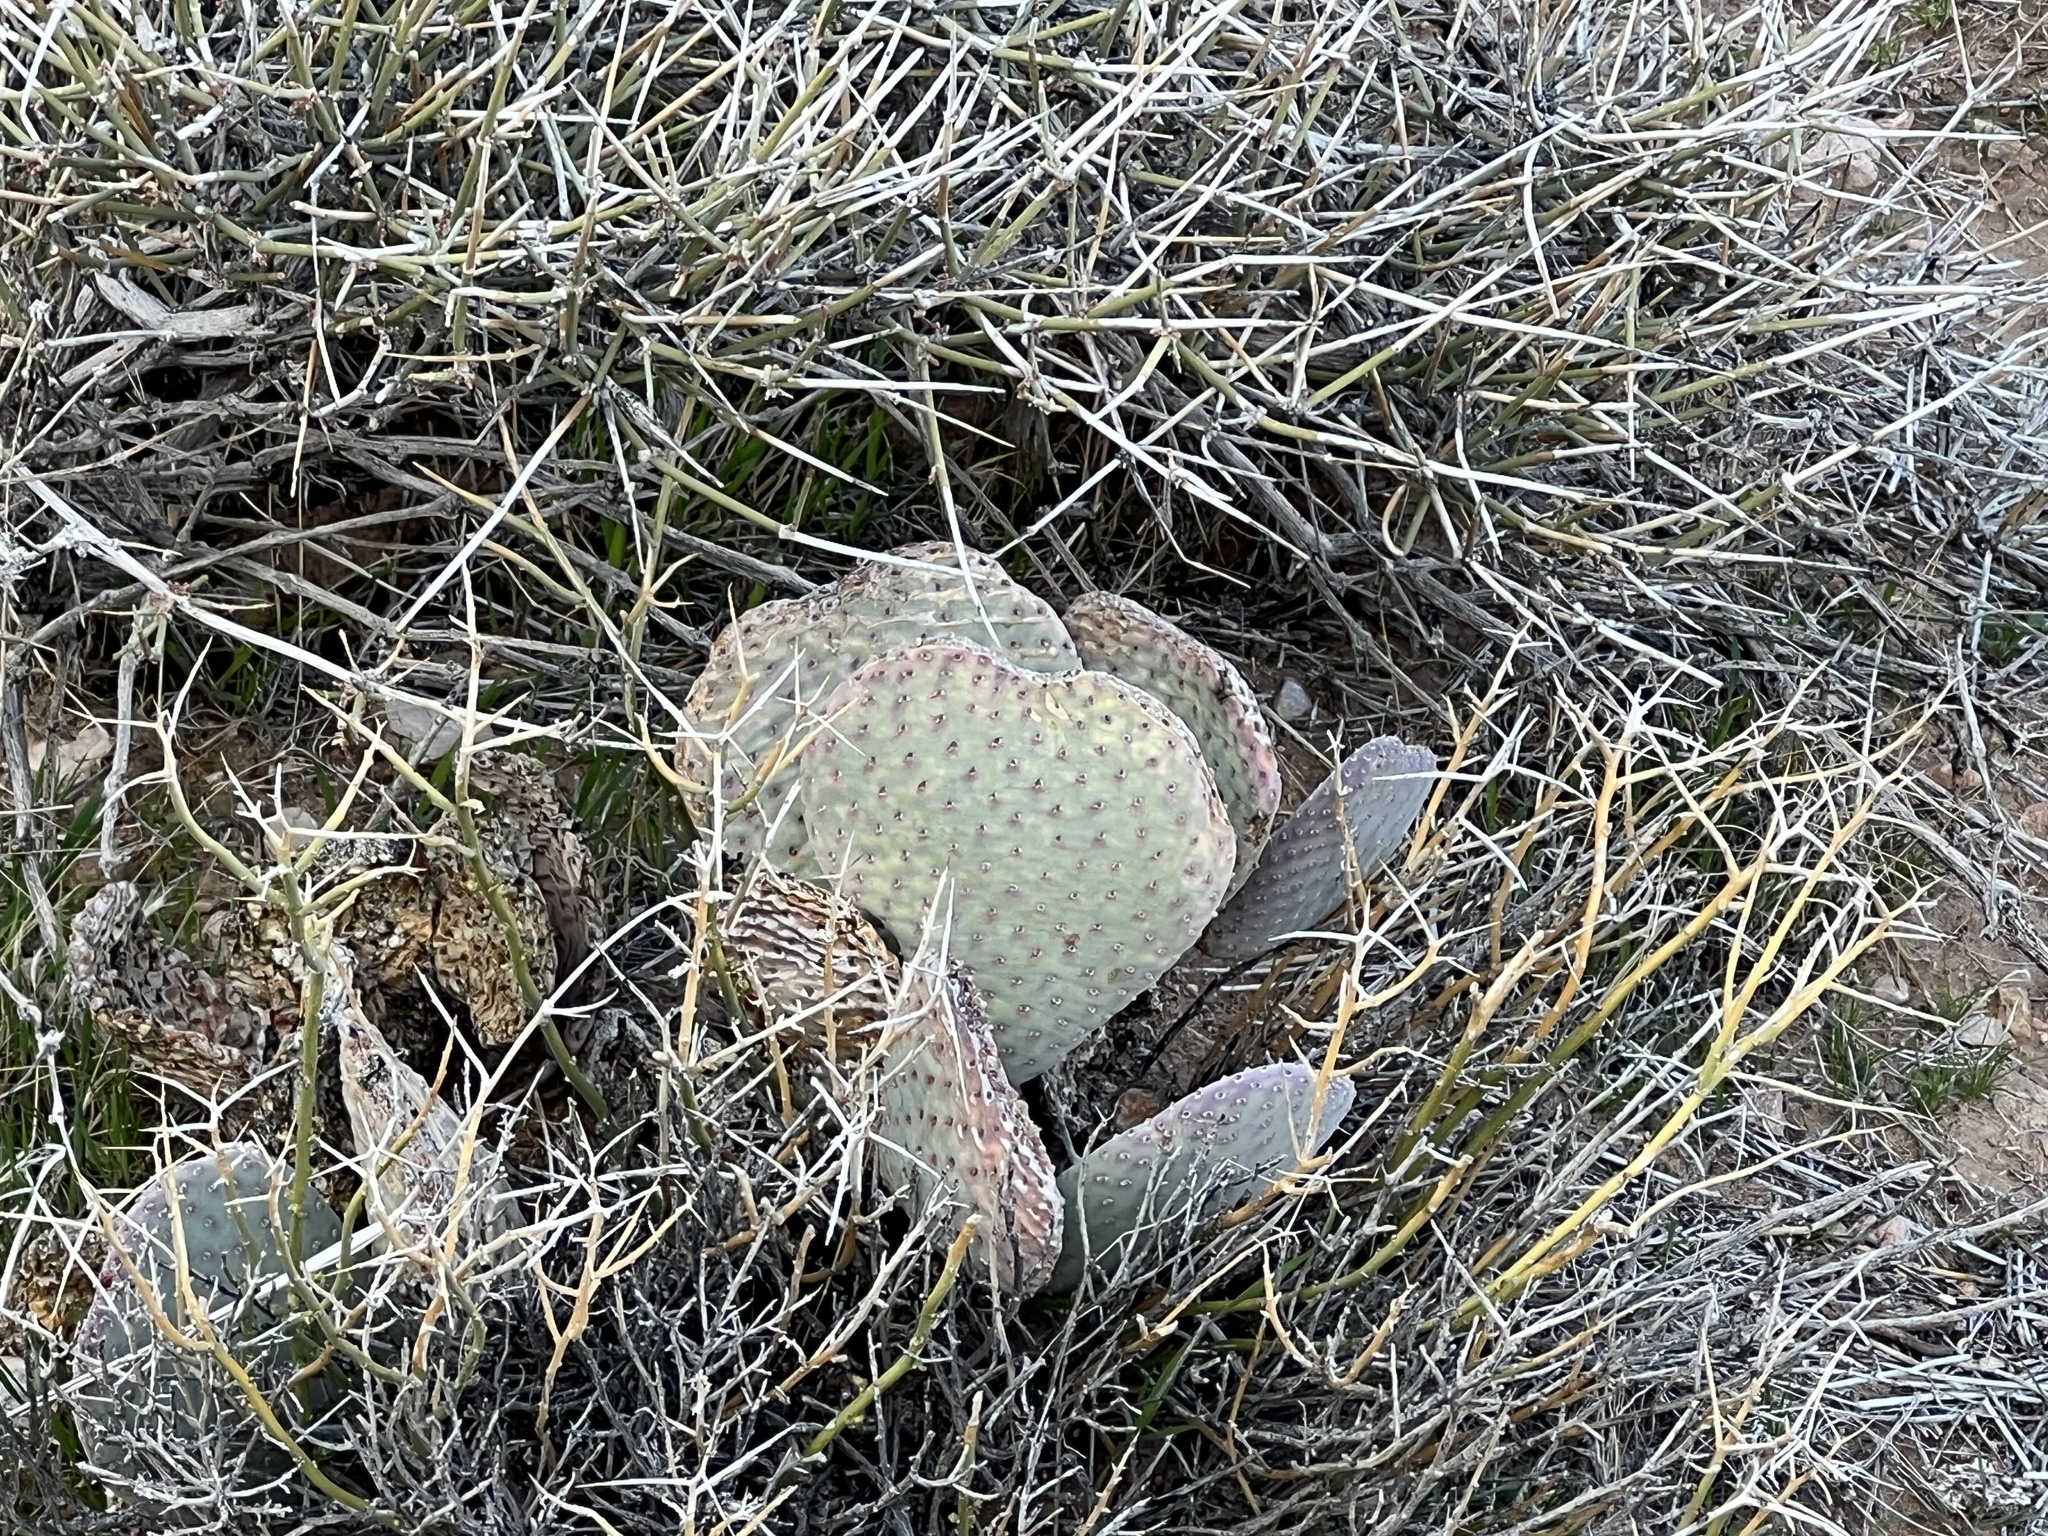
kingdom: Plantae
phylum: Tracheophyta
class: Magnoliopsida
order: Caryophyllales
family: Cactaceae
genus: Opuntia
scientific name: Opuntia basilaris
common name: Beavertail prickly-pear
